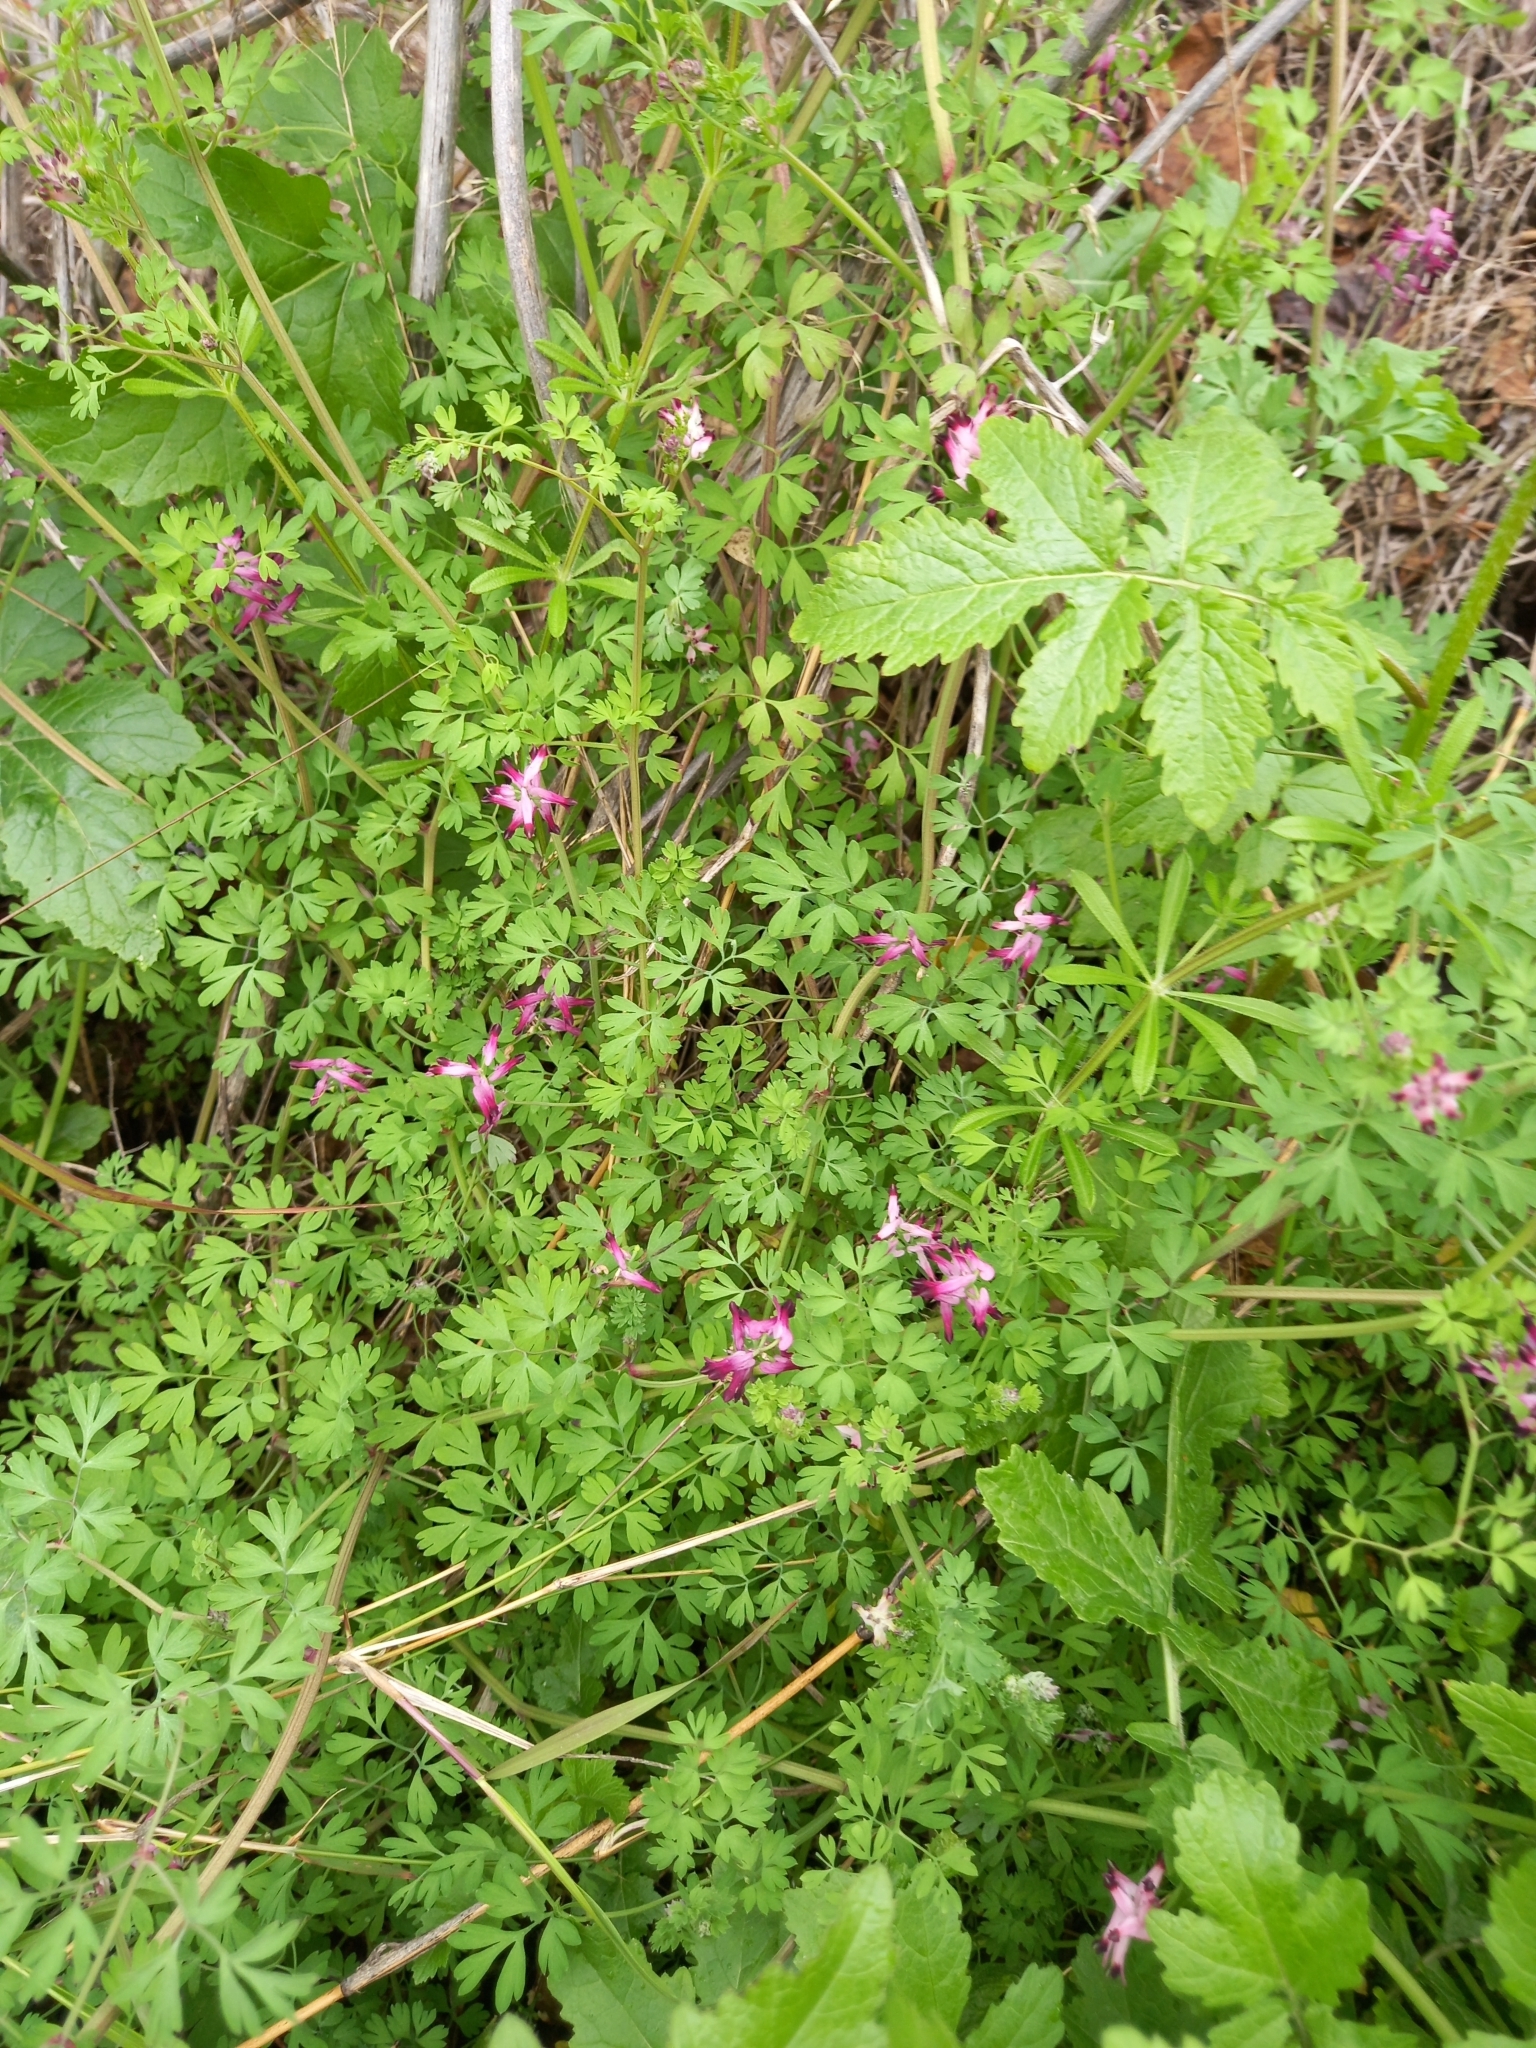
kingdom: Plantae
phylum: Tracheophyta
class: Magnoliopsida
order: Ranunculales
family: Papaveraceae
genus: Fumaria
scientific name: Fumaria officinalis
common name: Common fumitory
